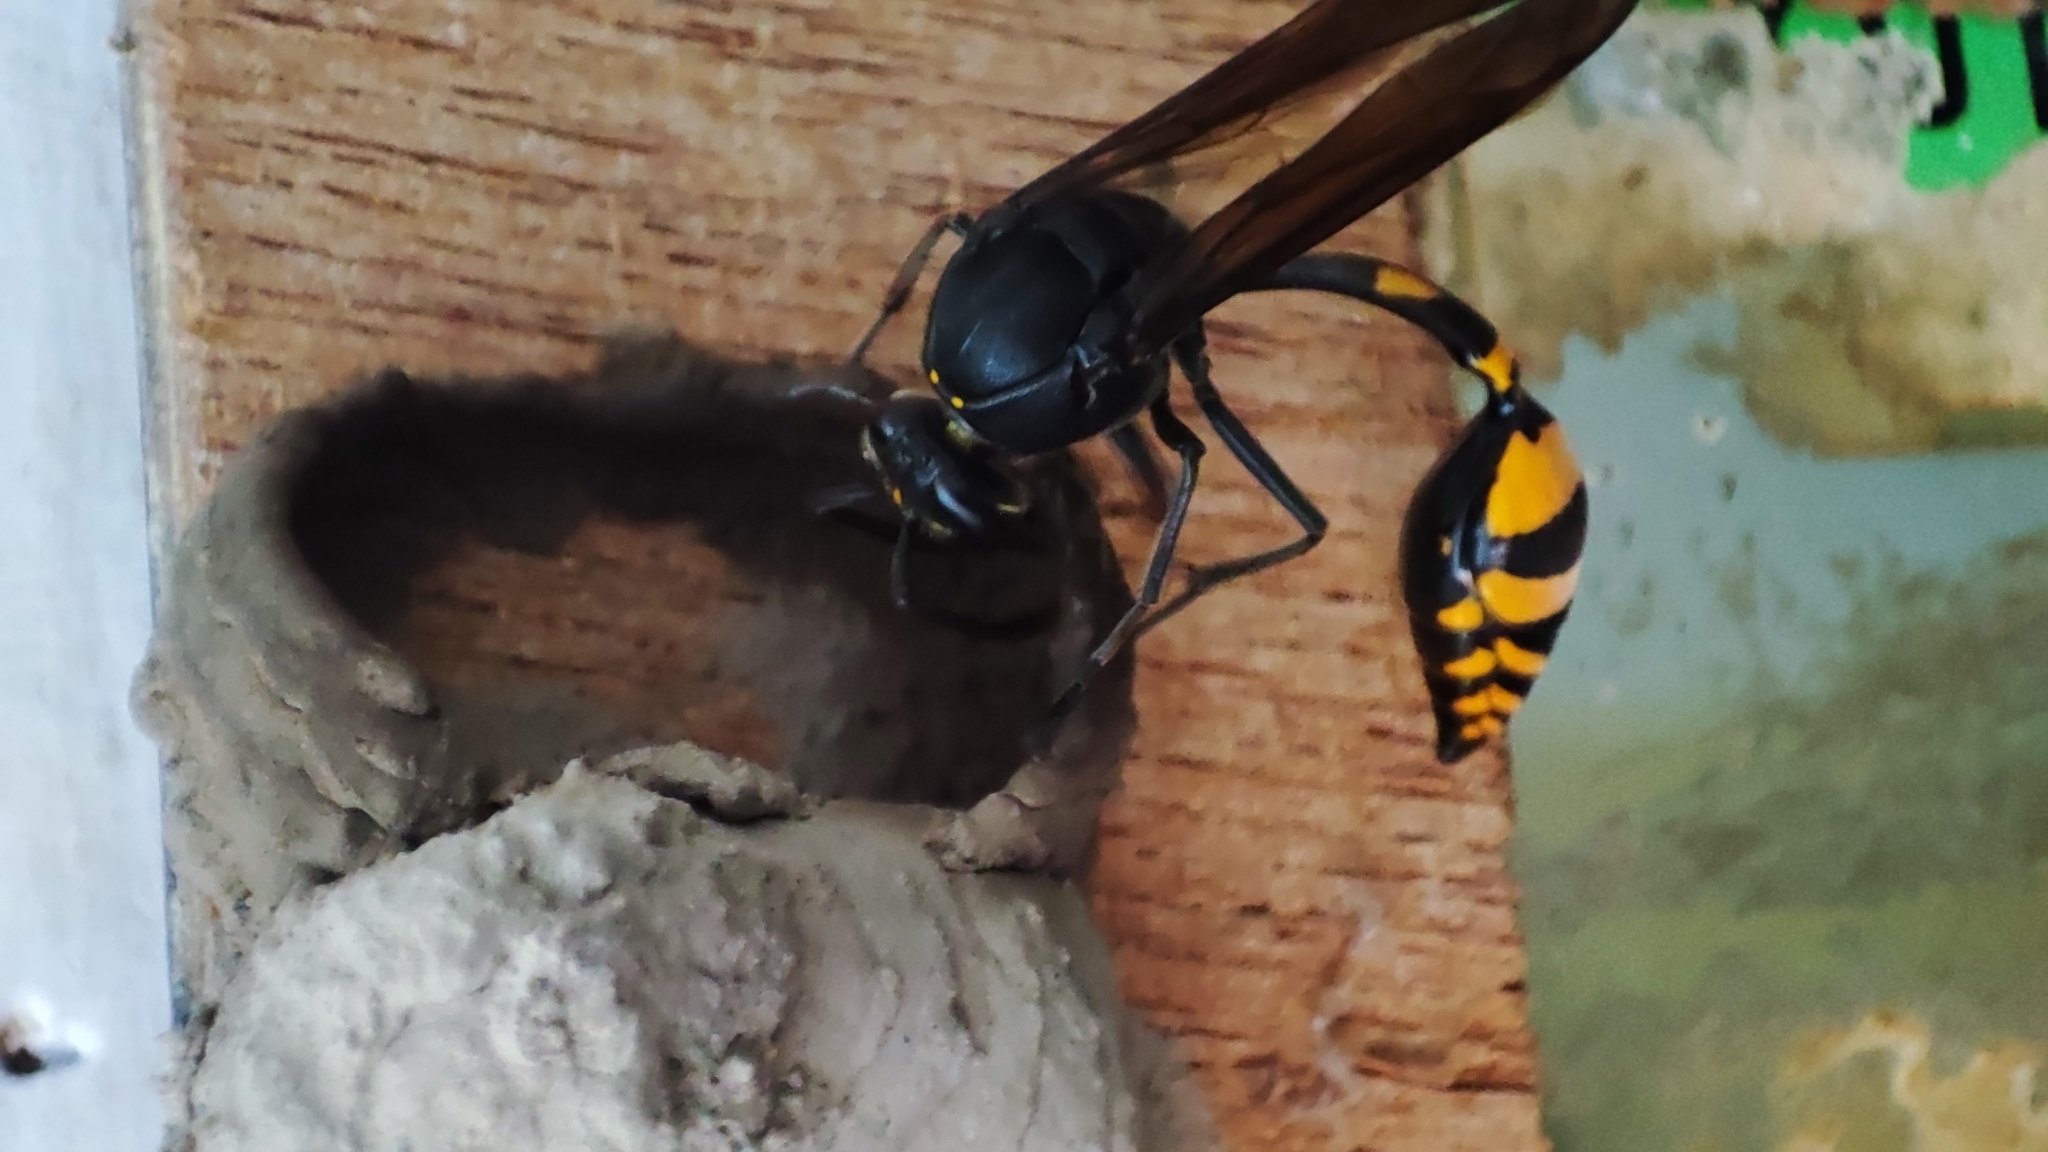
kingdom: Animalia
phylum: Arthropoda
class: Insecta
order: Hymenoptera
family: Eumenidae
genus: Phimenes
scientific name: Phimenes flavopictus
